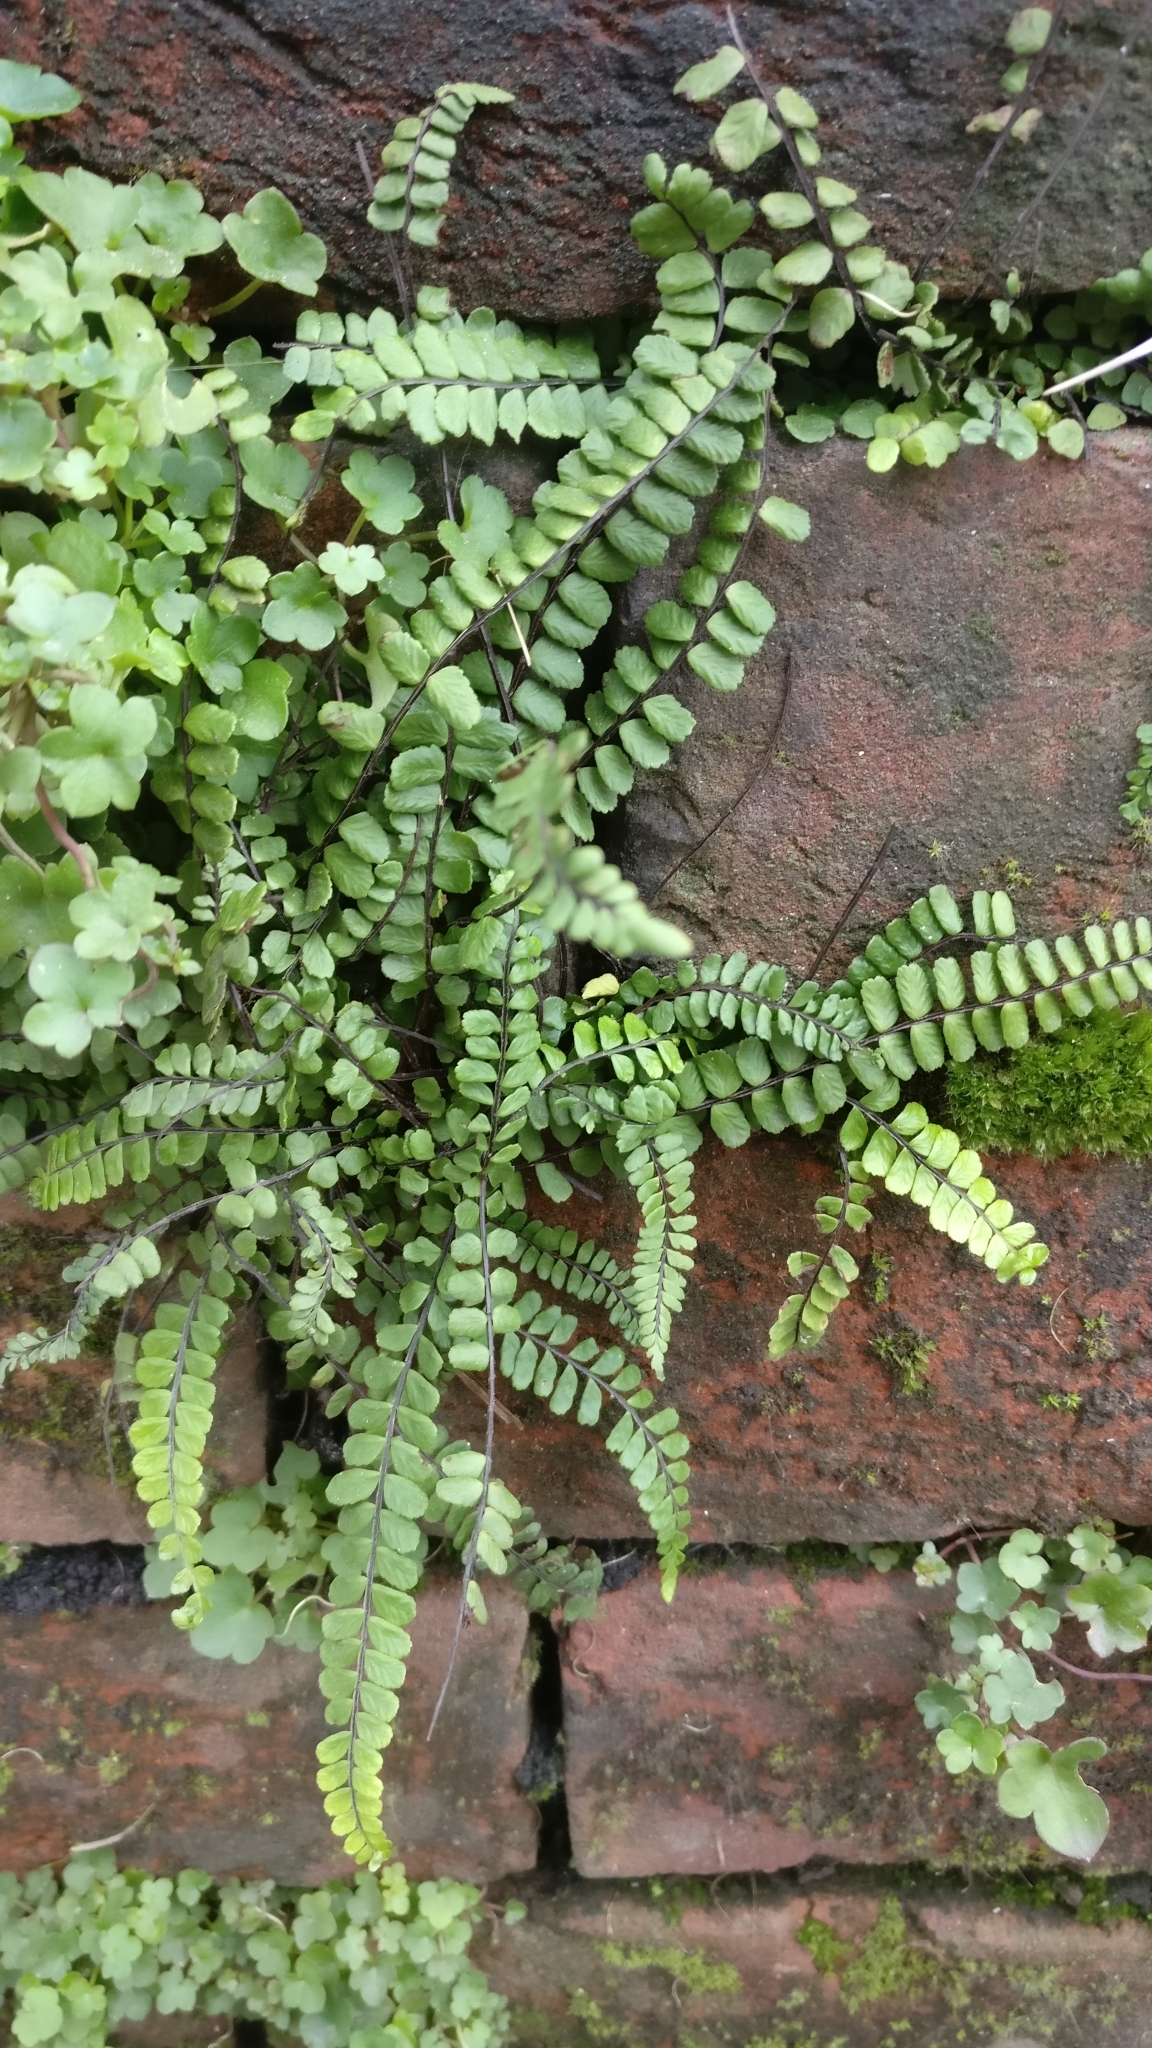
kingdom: Plantae
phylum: Tracheophyta
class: Polypodiopsida
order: Polypodiales
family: Aspleniaceae
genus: Asplenium
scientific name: Asplenium trichomanes
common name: Maidenhair spleenwort
